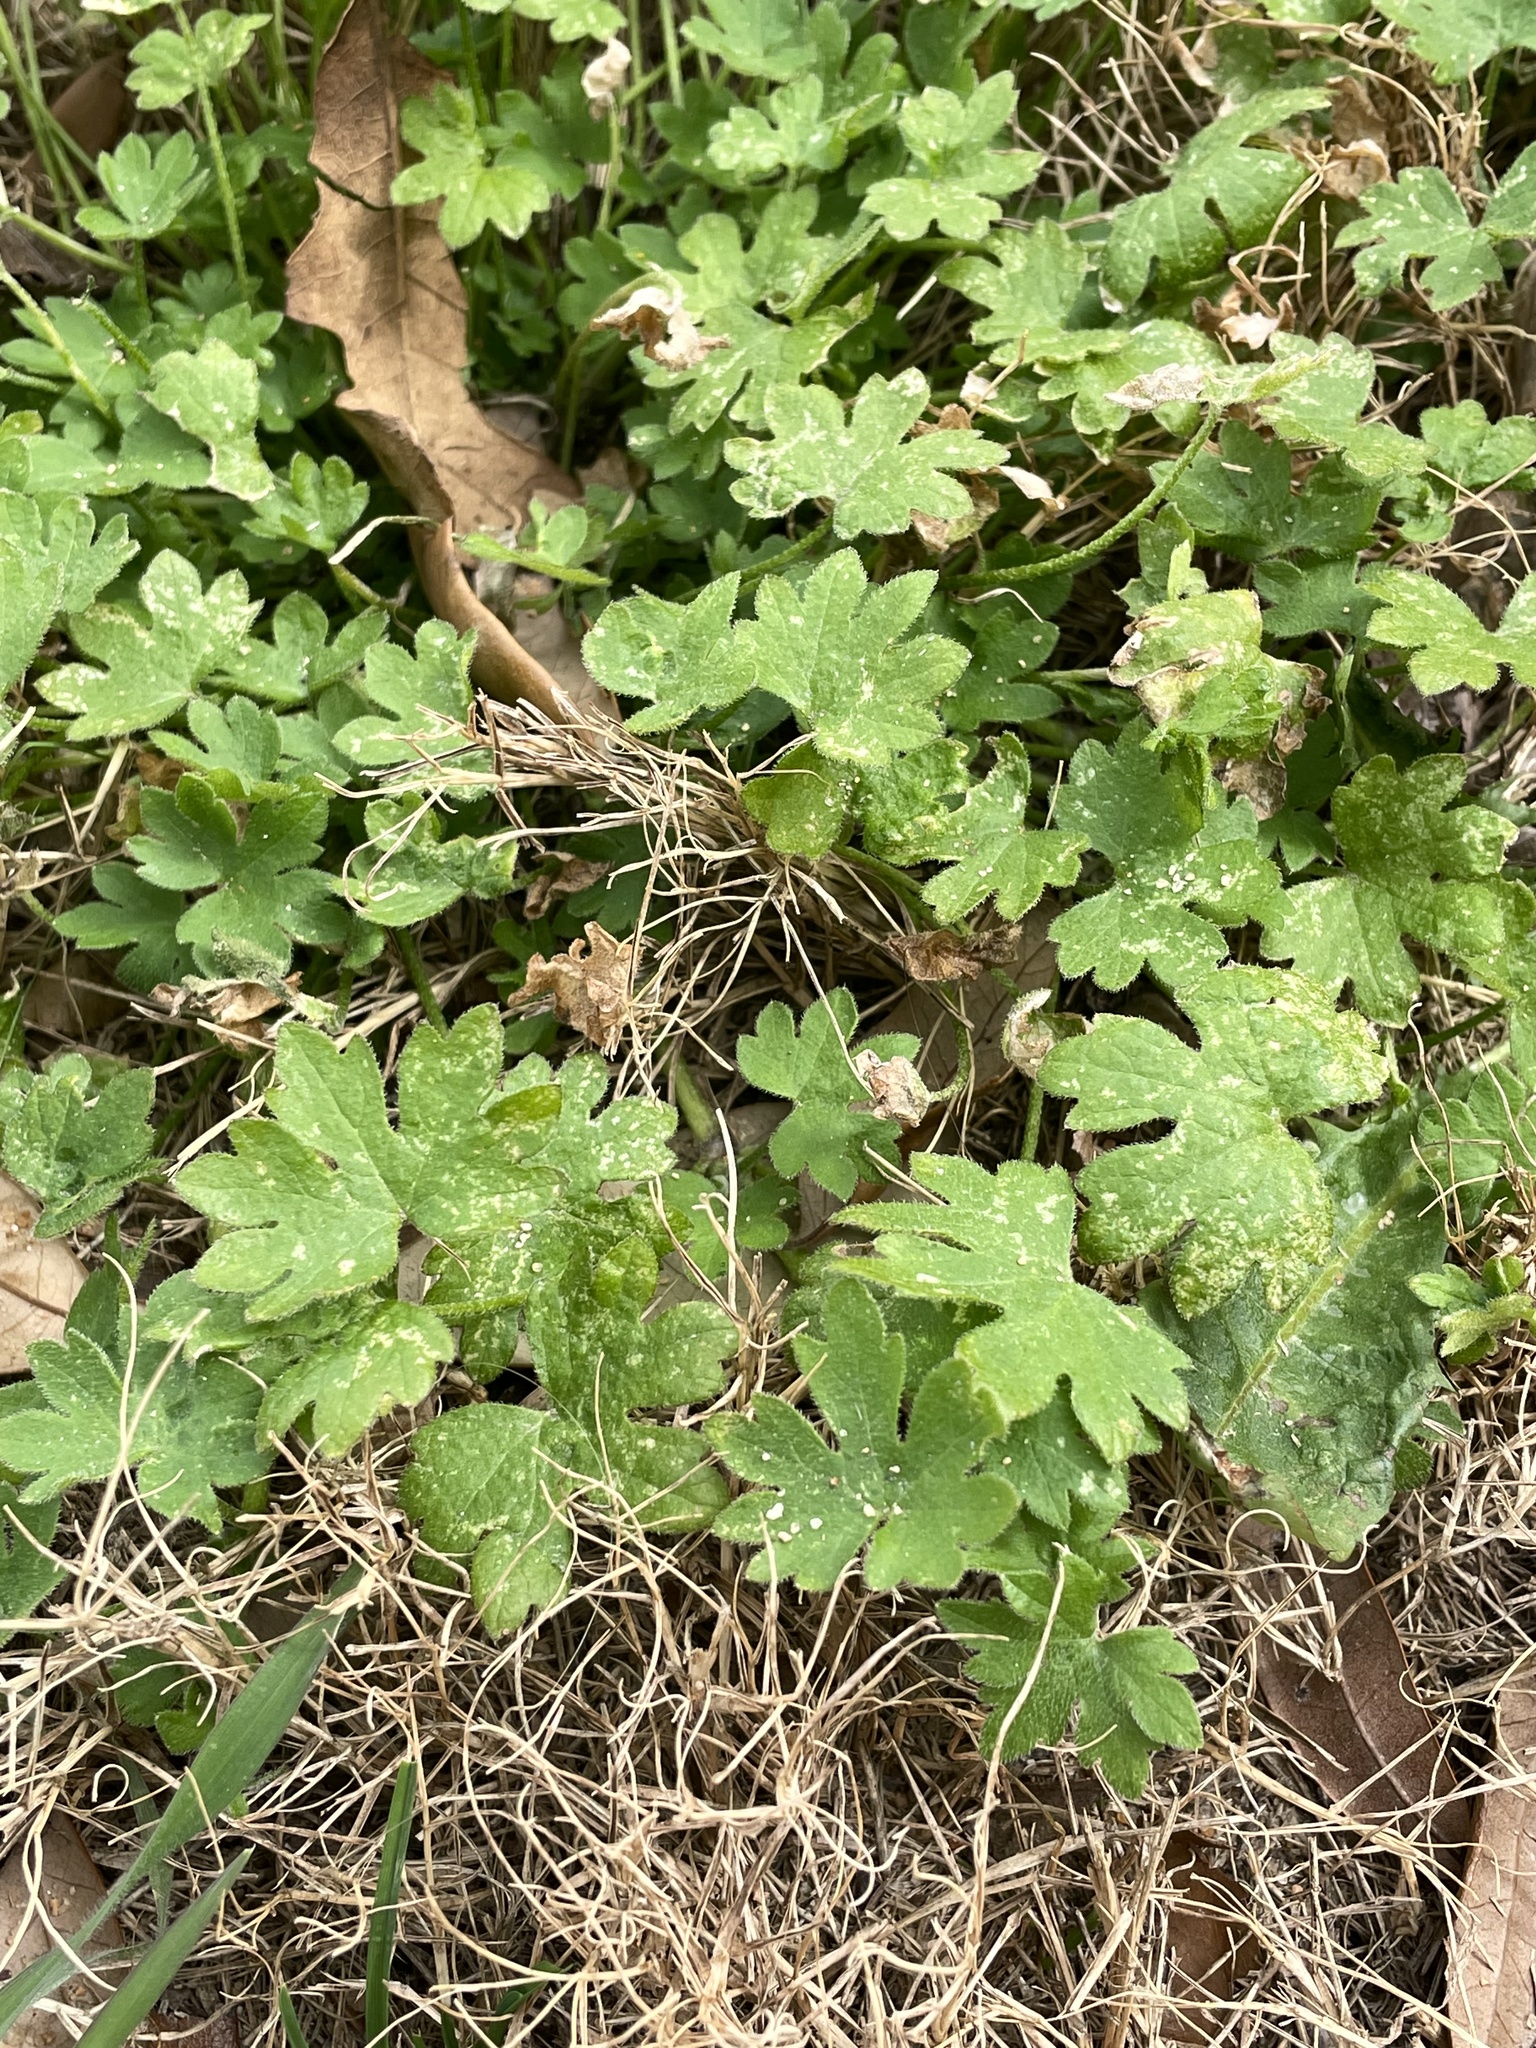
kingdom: Plantae
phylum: Tracheophyta
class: Magnoliopsida
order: Apiales
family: Apiaceae
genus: Bowlesia
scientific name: Bowlesia incana
